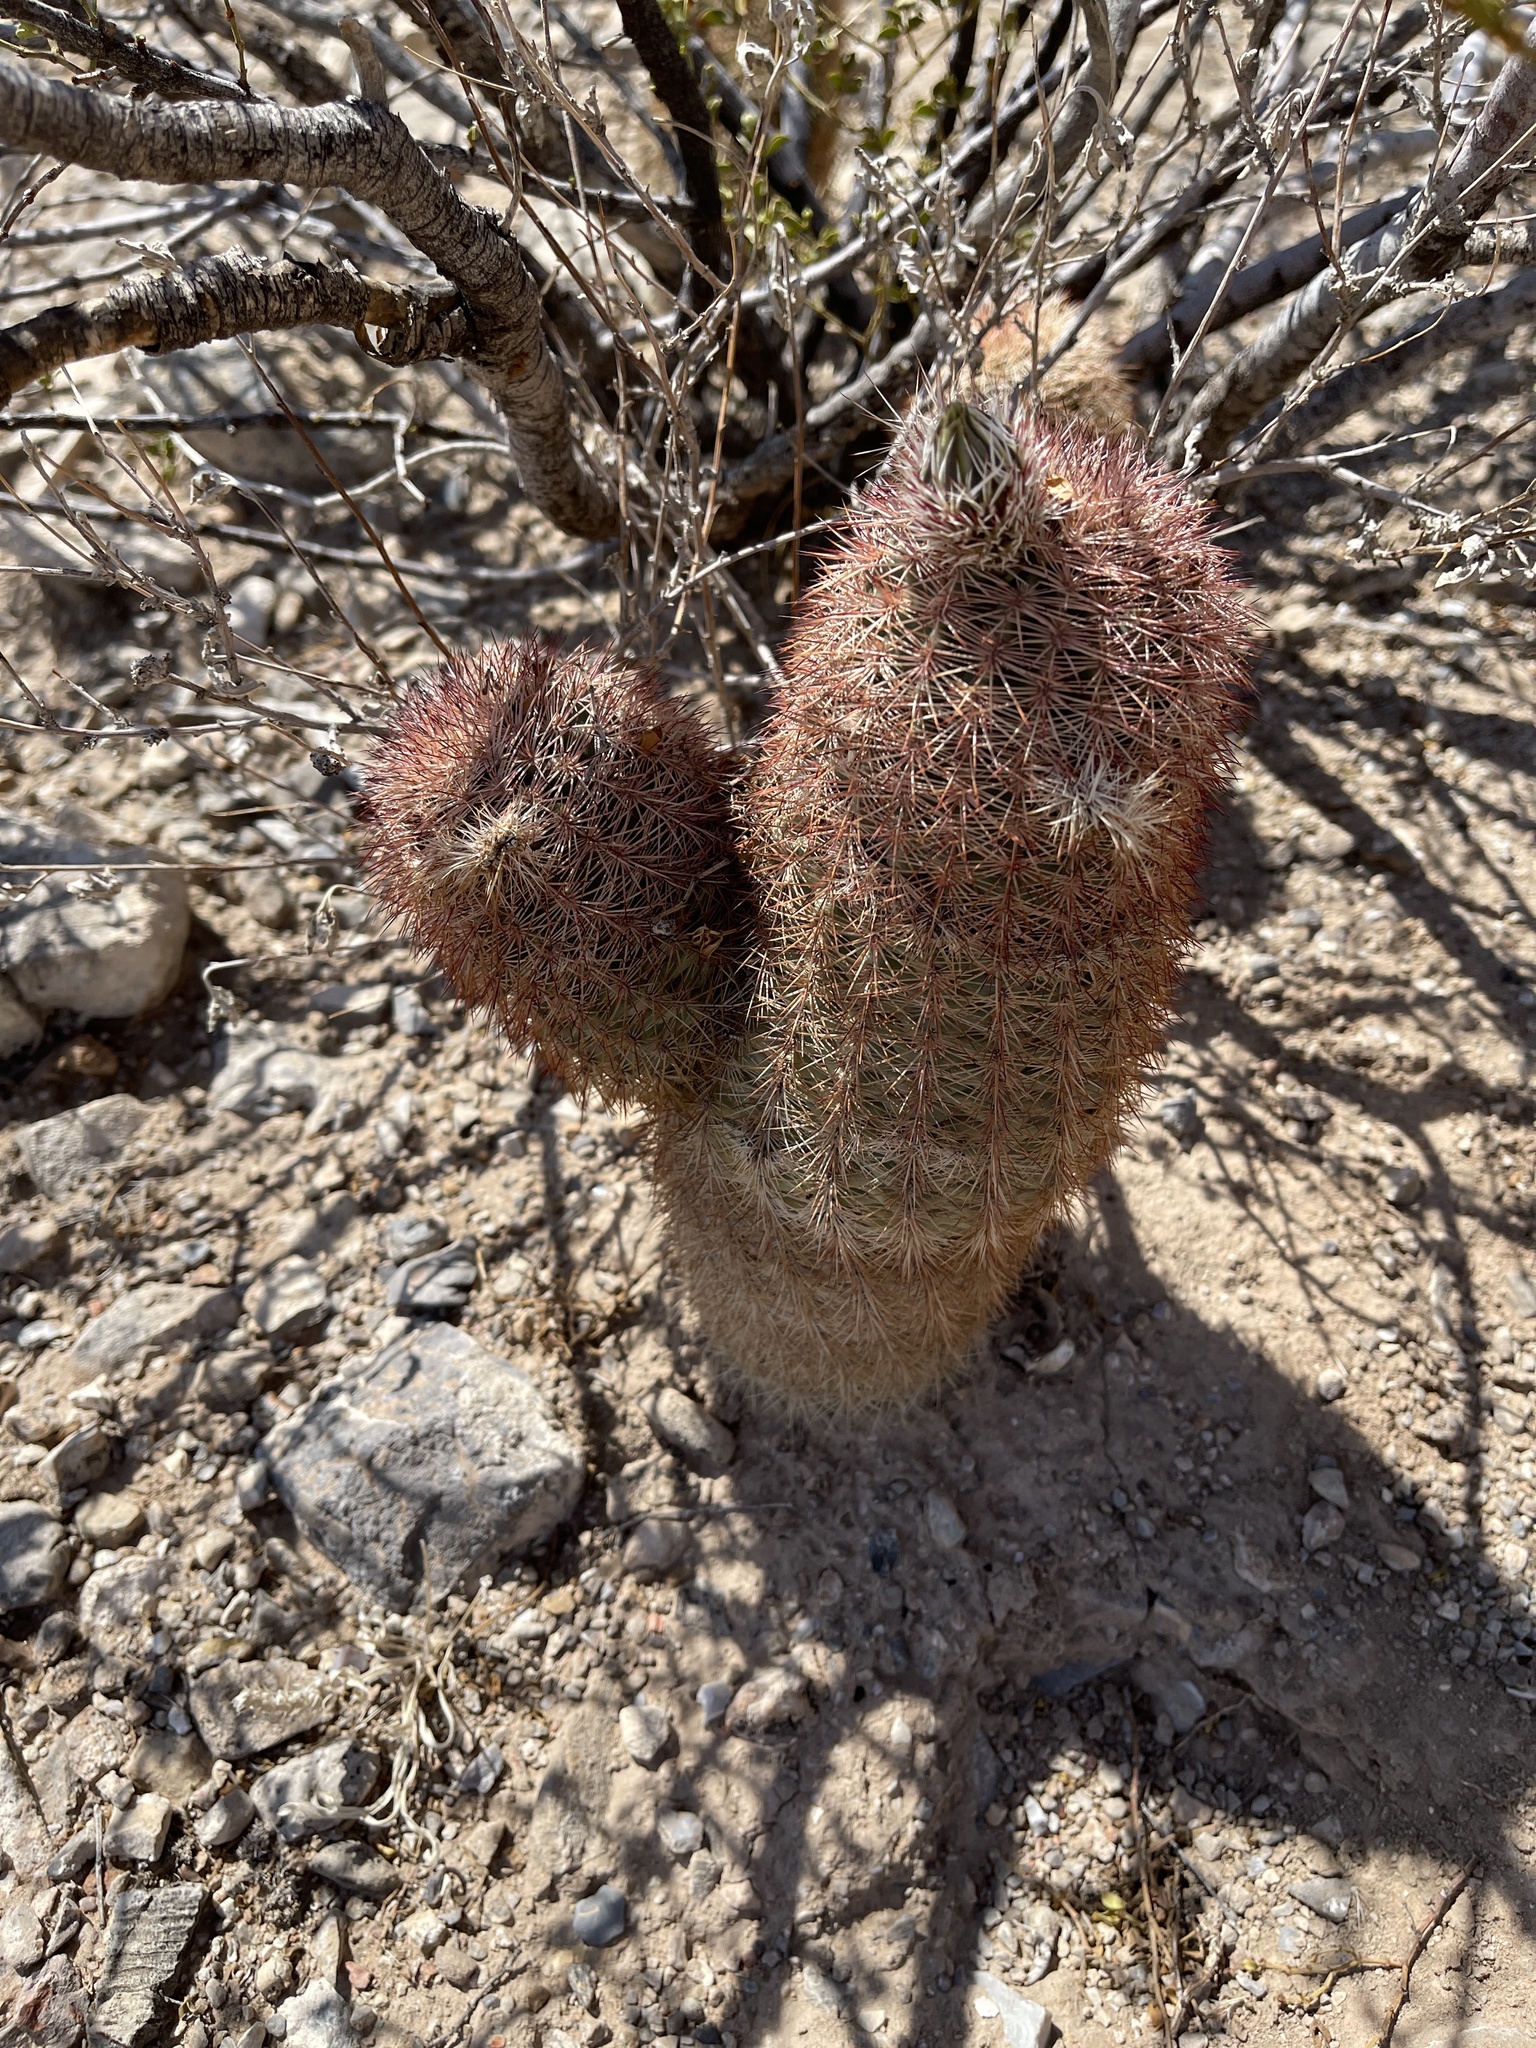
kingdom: Plantae
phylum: Tracheophyta
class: Magnoliopsida
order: Caryophyllales
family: Cactaceae
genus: Echinocereus
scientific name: Echinocereus dasyacanthus
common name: Spiny hedgehog cactus
